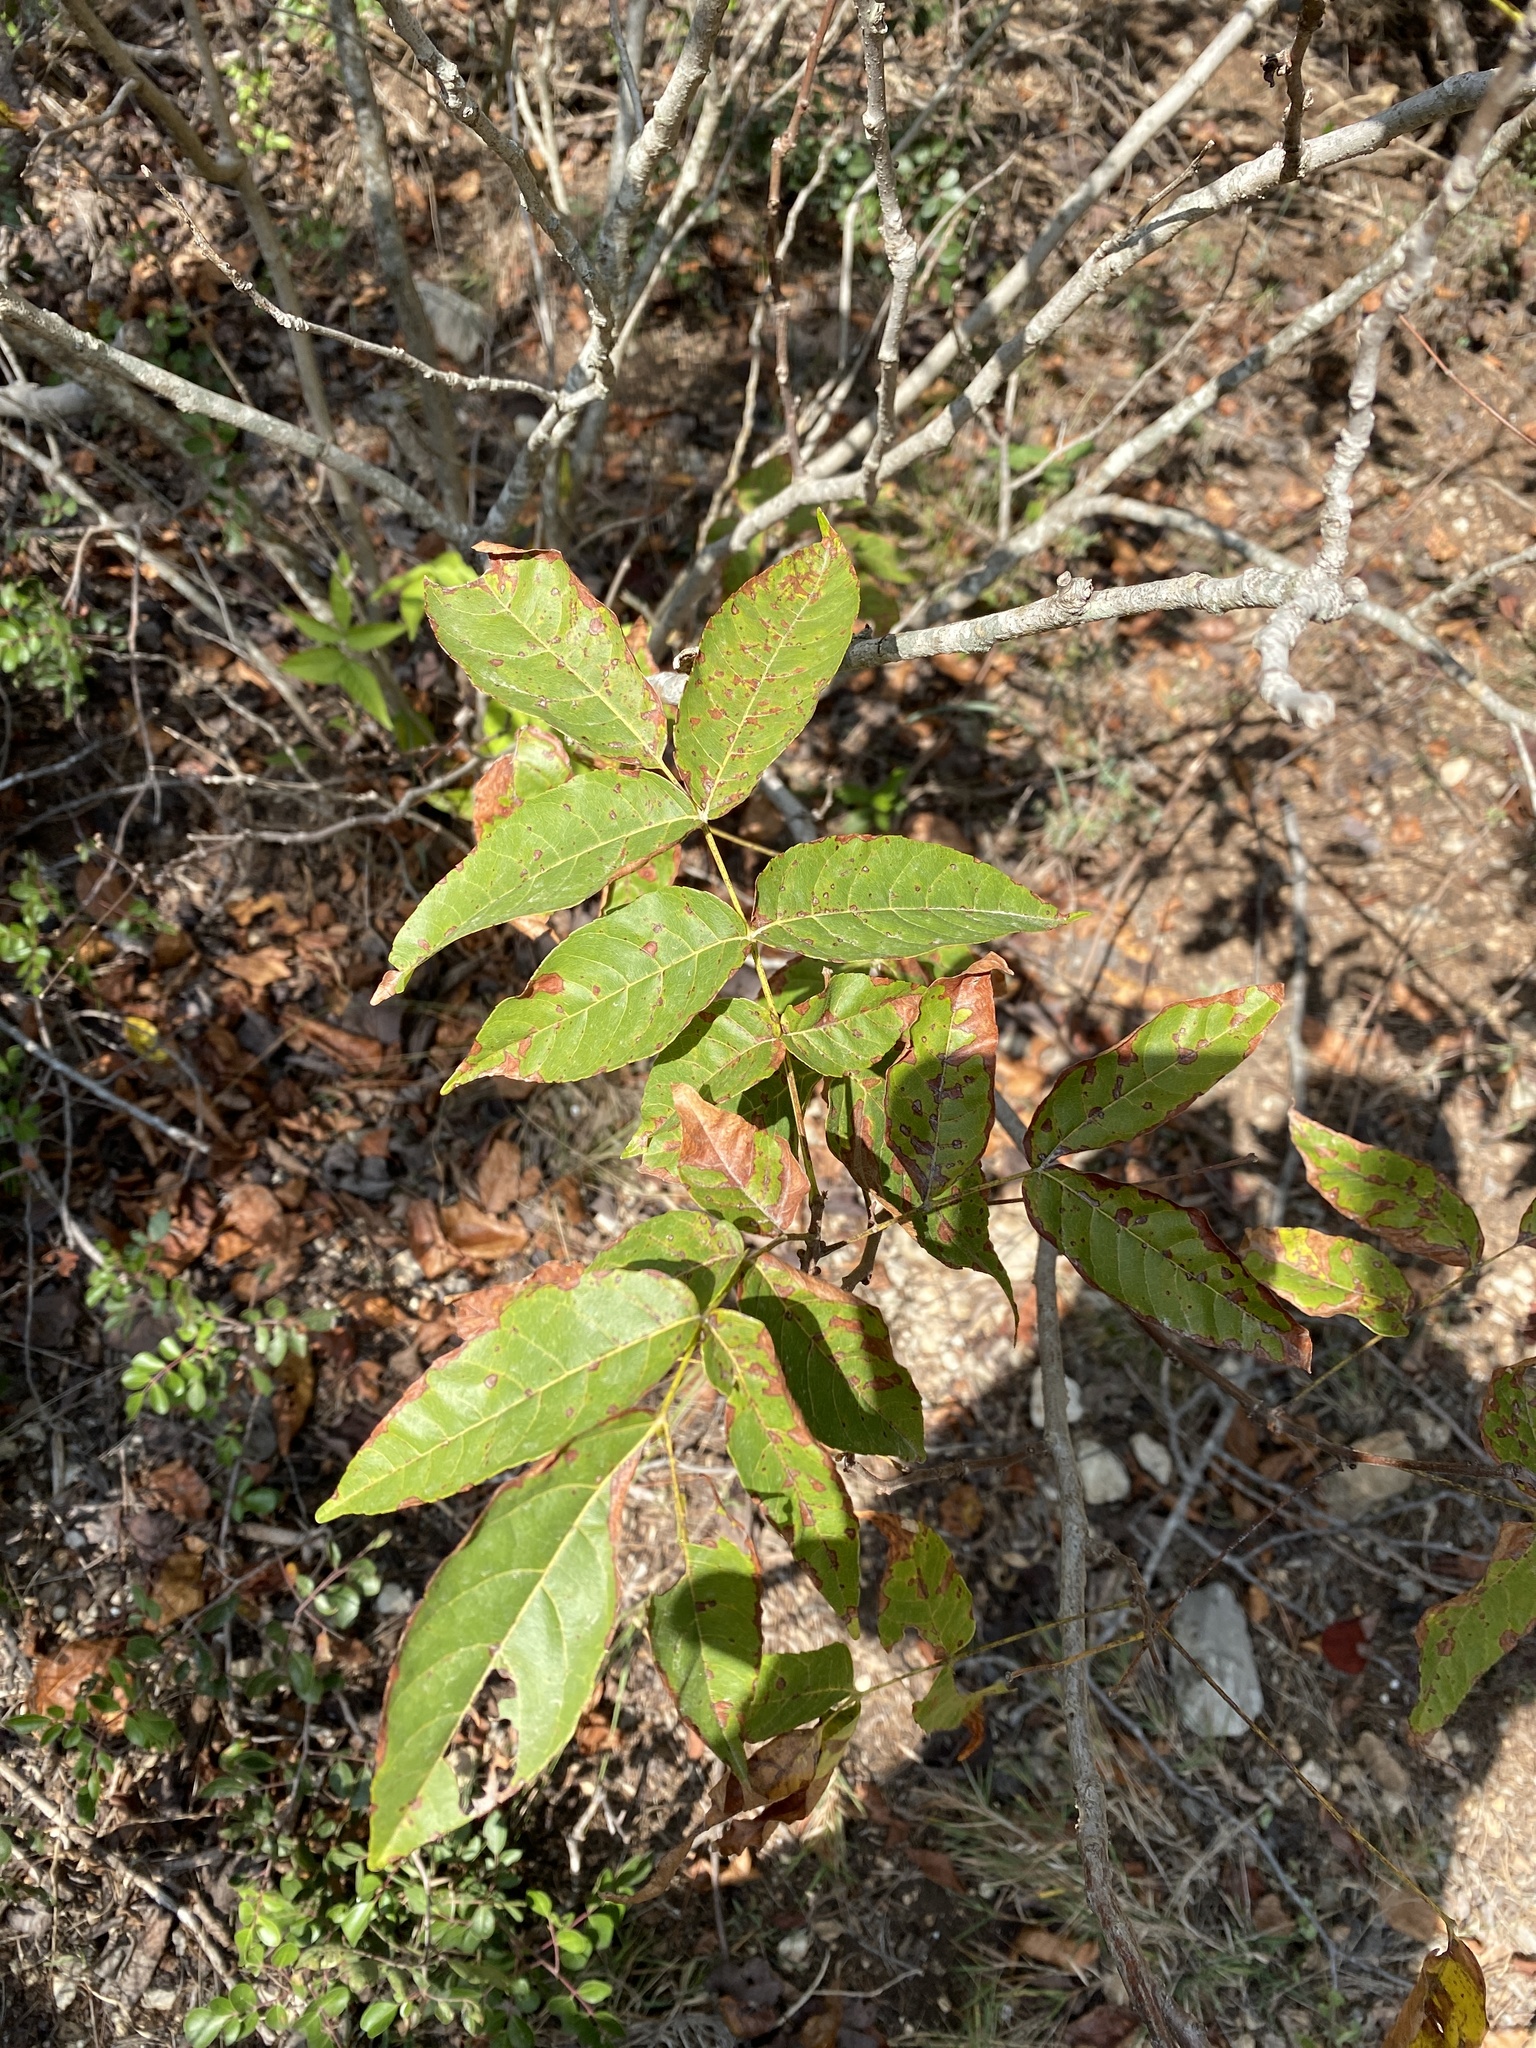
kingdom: Plantae
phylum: Tracheophyta
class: Magnoliopsida
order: Sapindales
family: Sapindaceae
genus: Ungnadia
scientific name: Ungnadia speciosa
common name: Texas-buckeye
